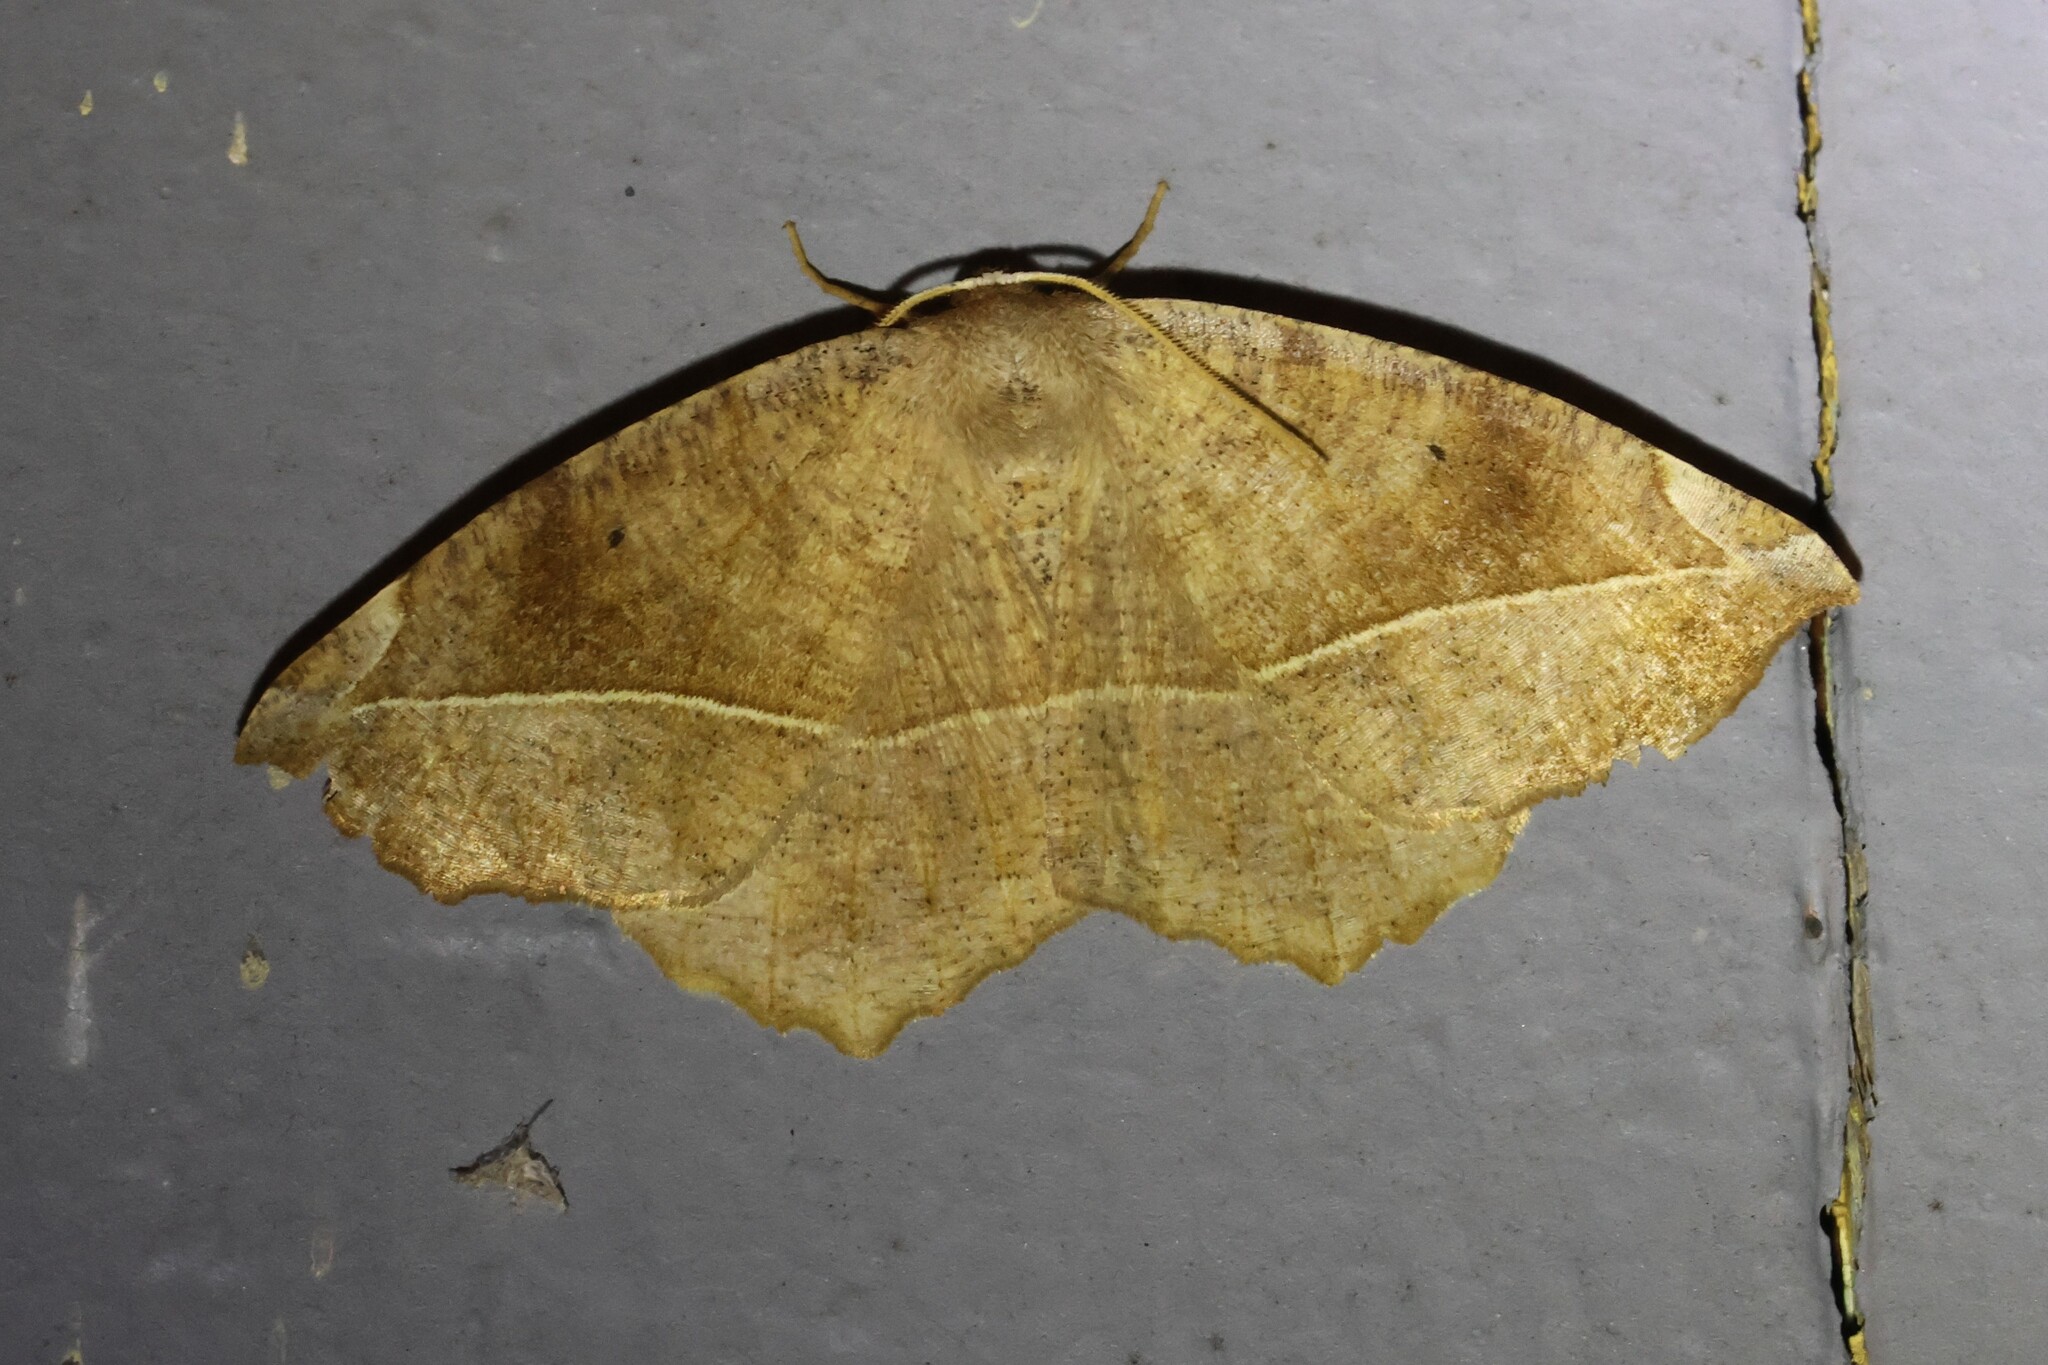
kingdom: Animalia
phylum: Arthropoda
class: Insecta
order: Lepidoptera
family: Geometridae
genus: Eutrapela
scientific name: Eutrapela clemataria
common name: Curved-toothed geometer
